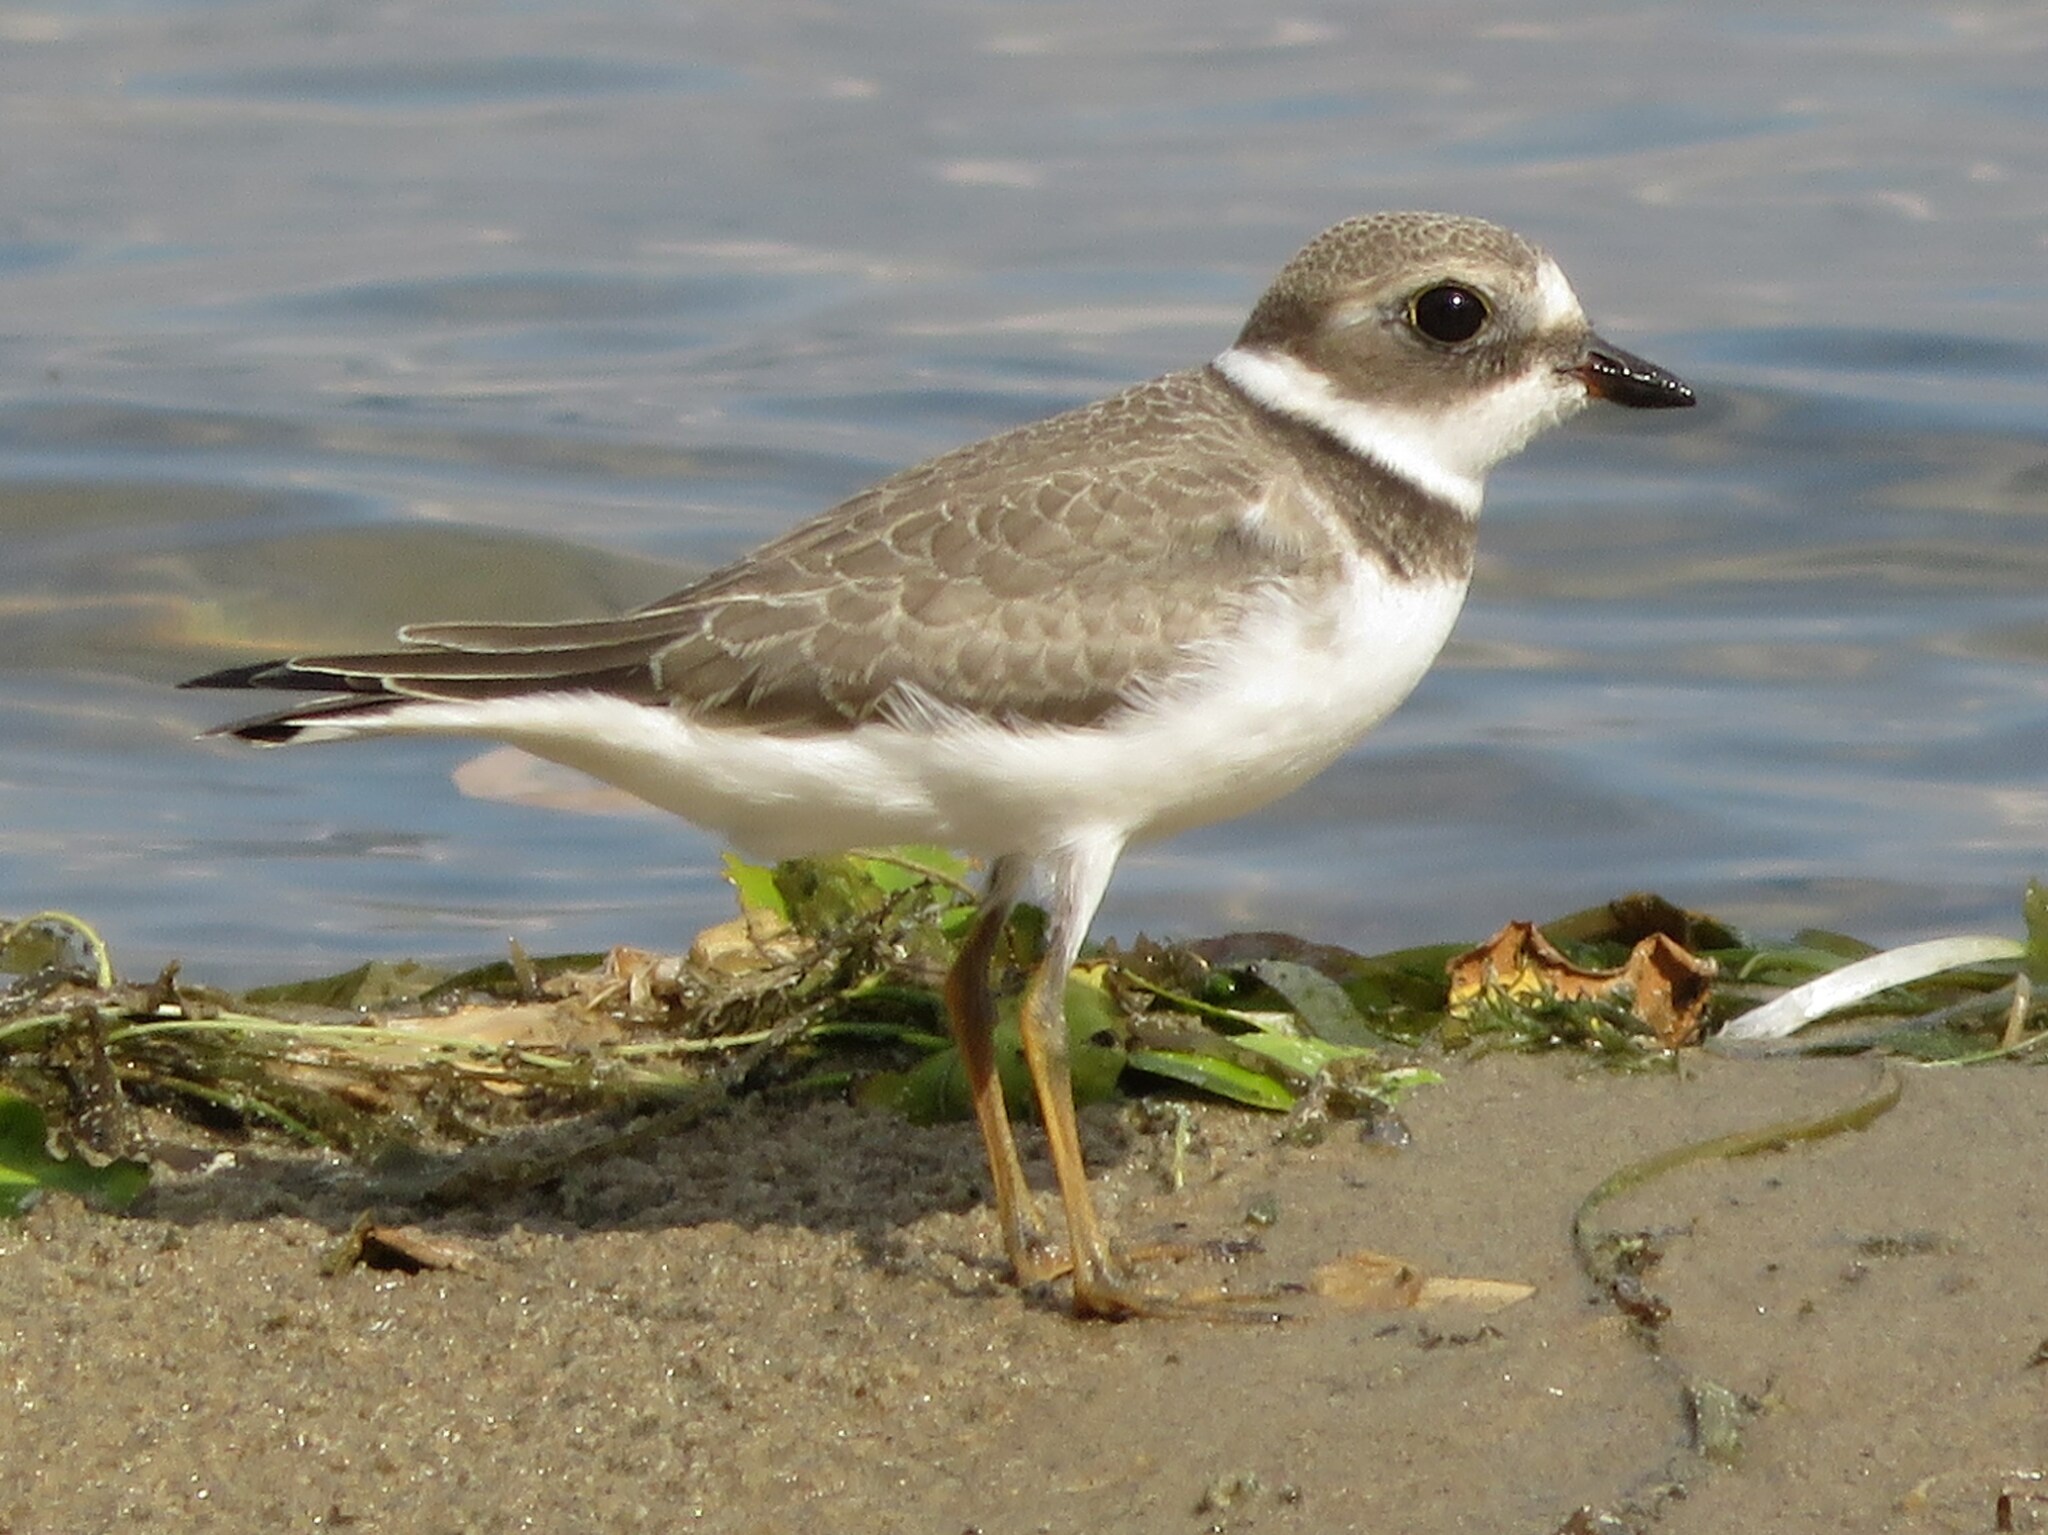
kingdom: Animalia
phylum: Chordata
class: Aves
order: Charadriiformes
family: Charadriidae
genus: Charadrius
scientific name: Charadrius semipalmatus
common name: Semipalmated plover
